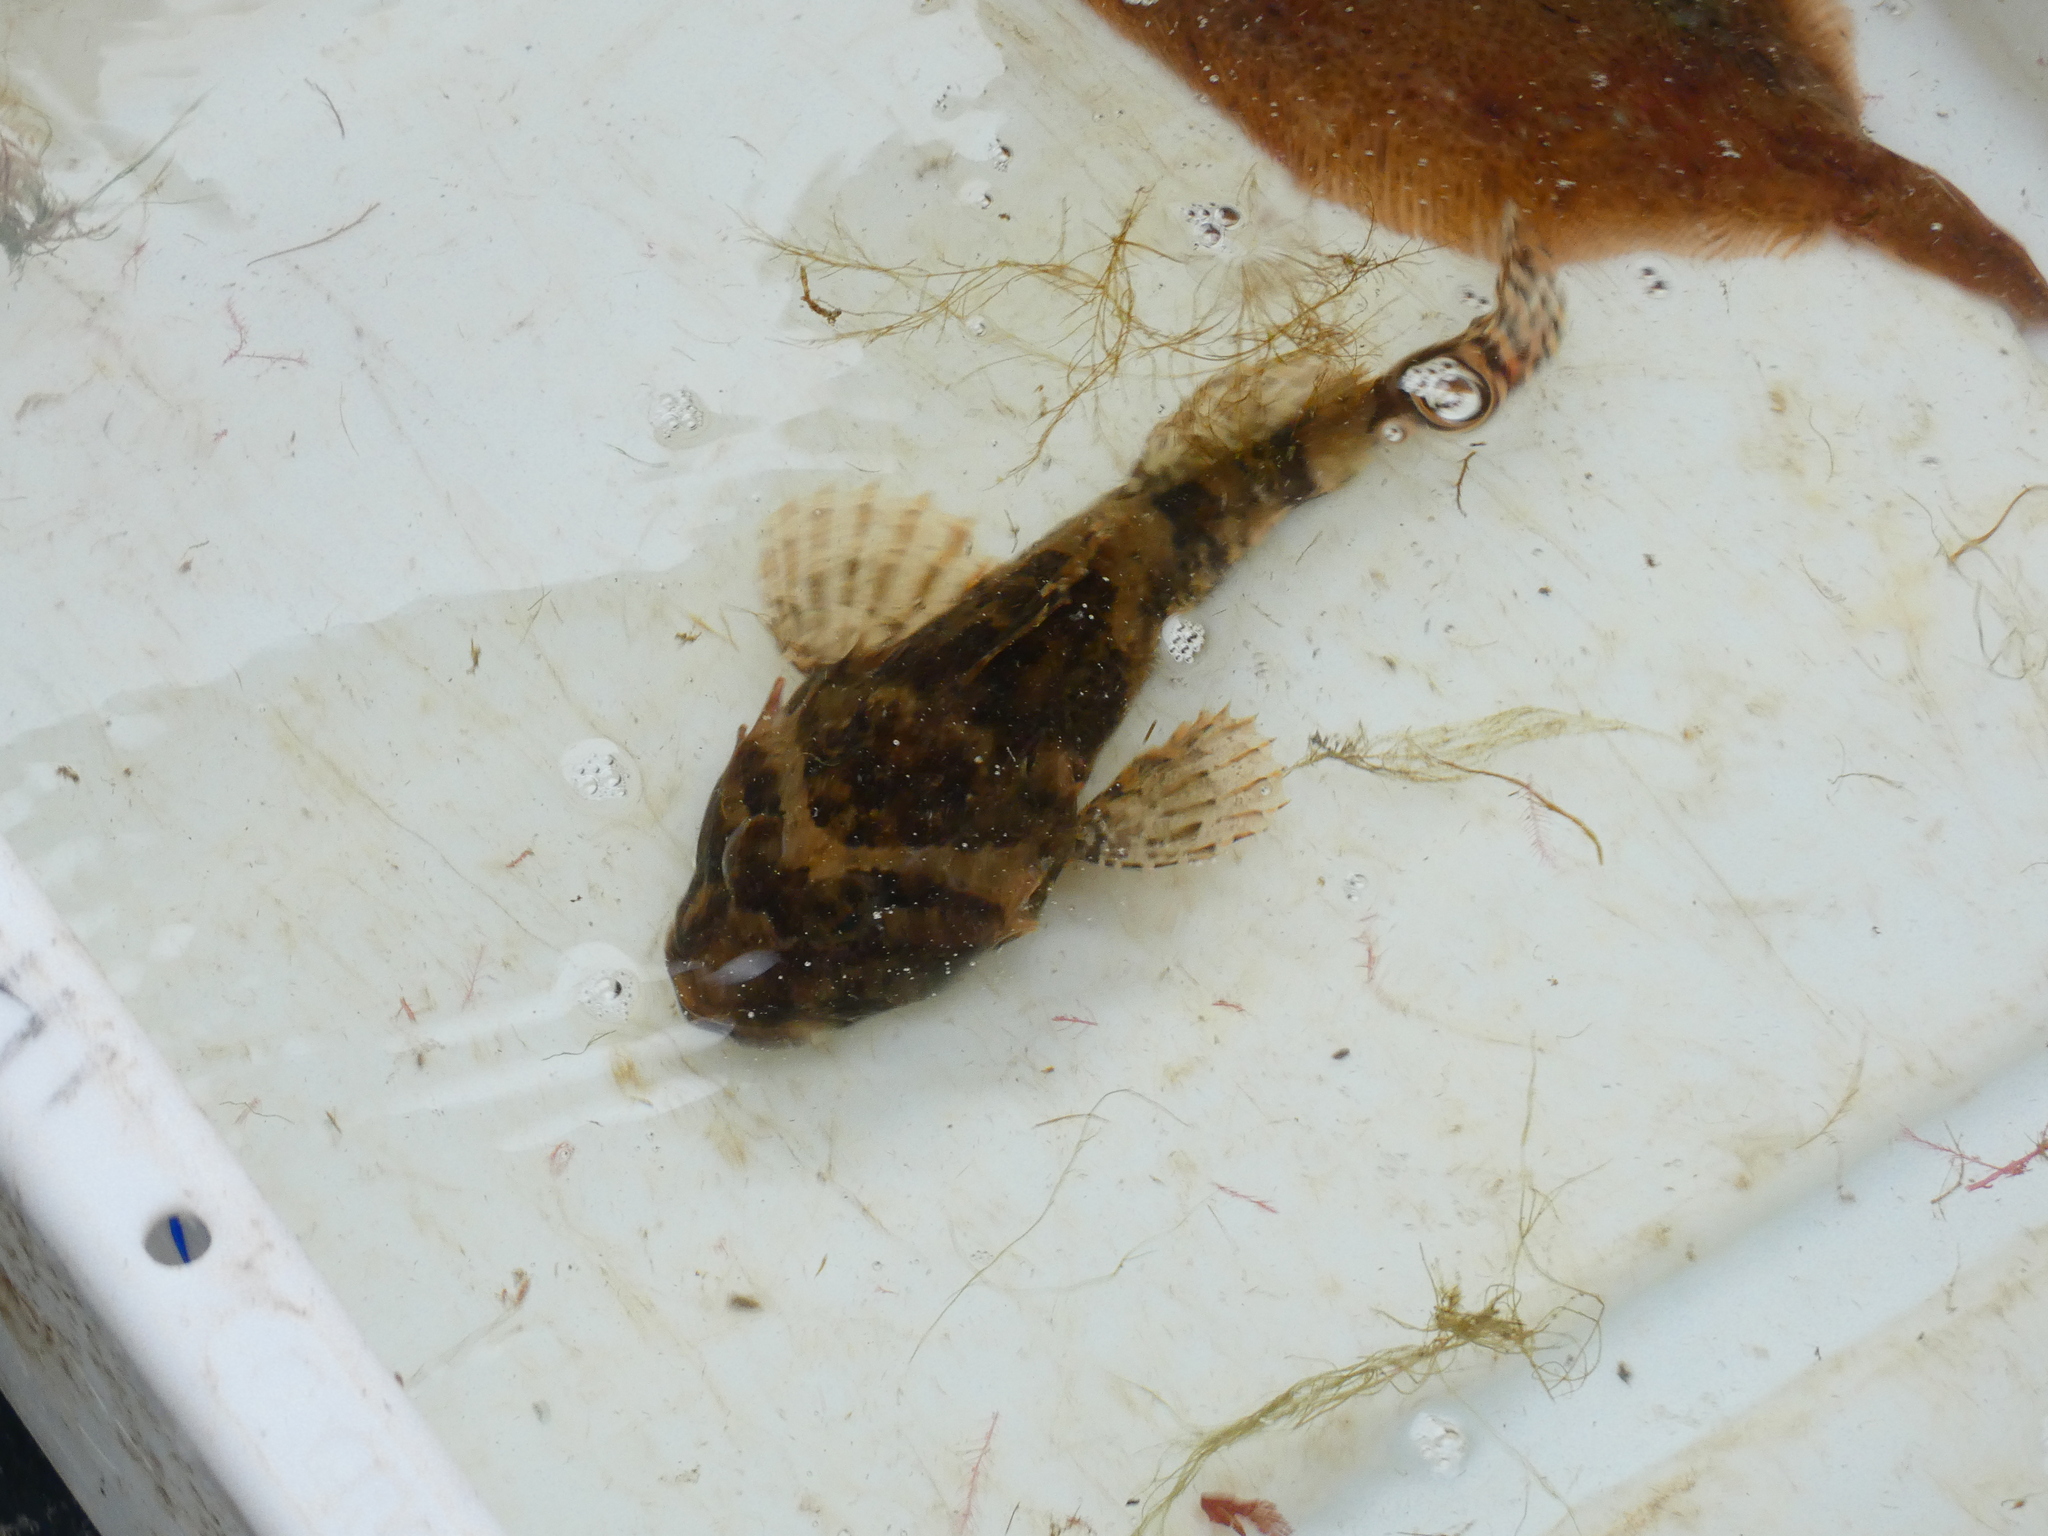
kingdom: Animalia
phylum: Chordata
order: Scorpaeniformes
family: Cottidae
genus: Myoxocephalus
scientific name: Myoxocephalus scorpius
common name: Shorthorn sculpin
